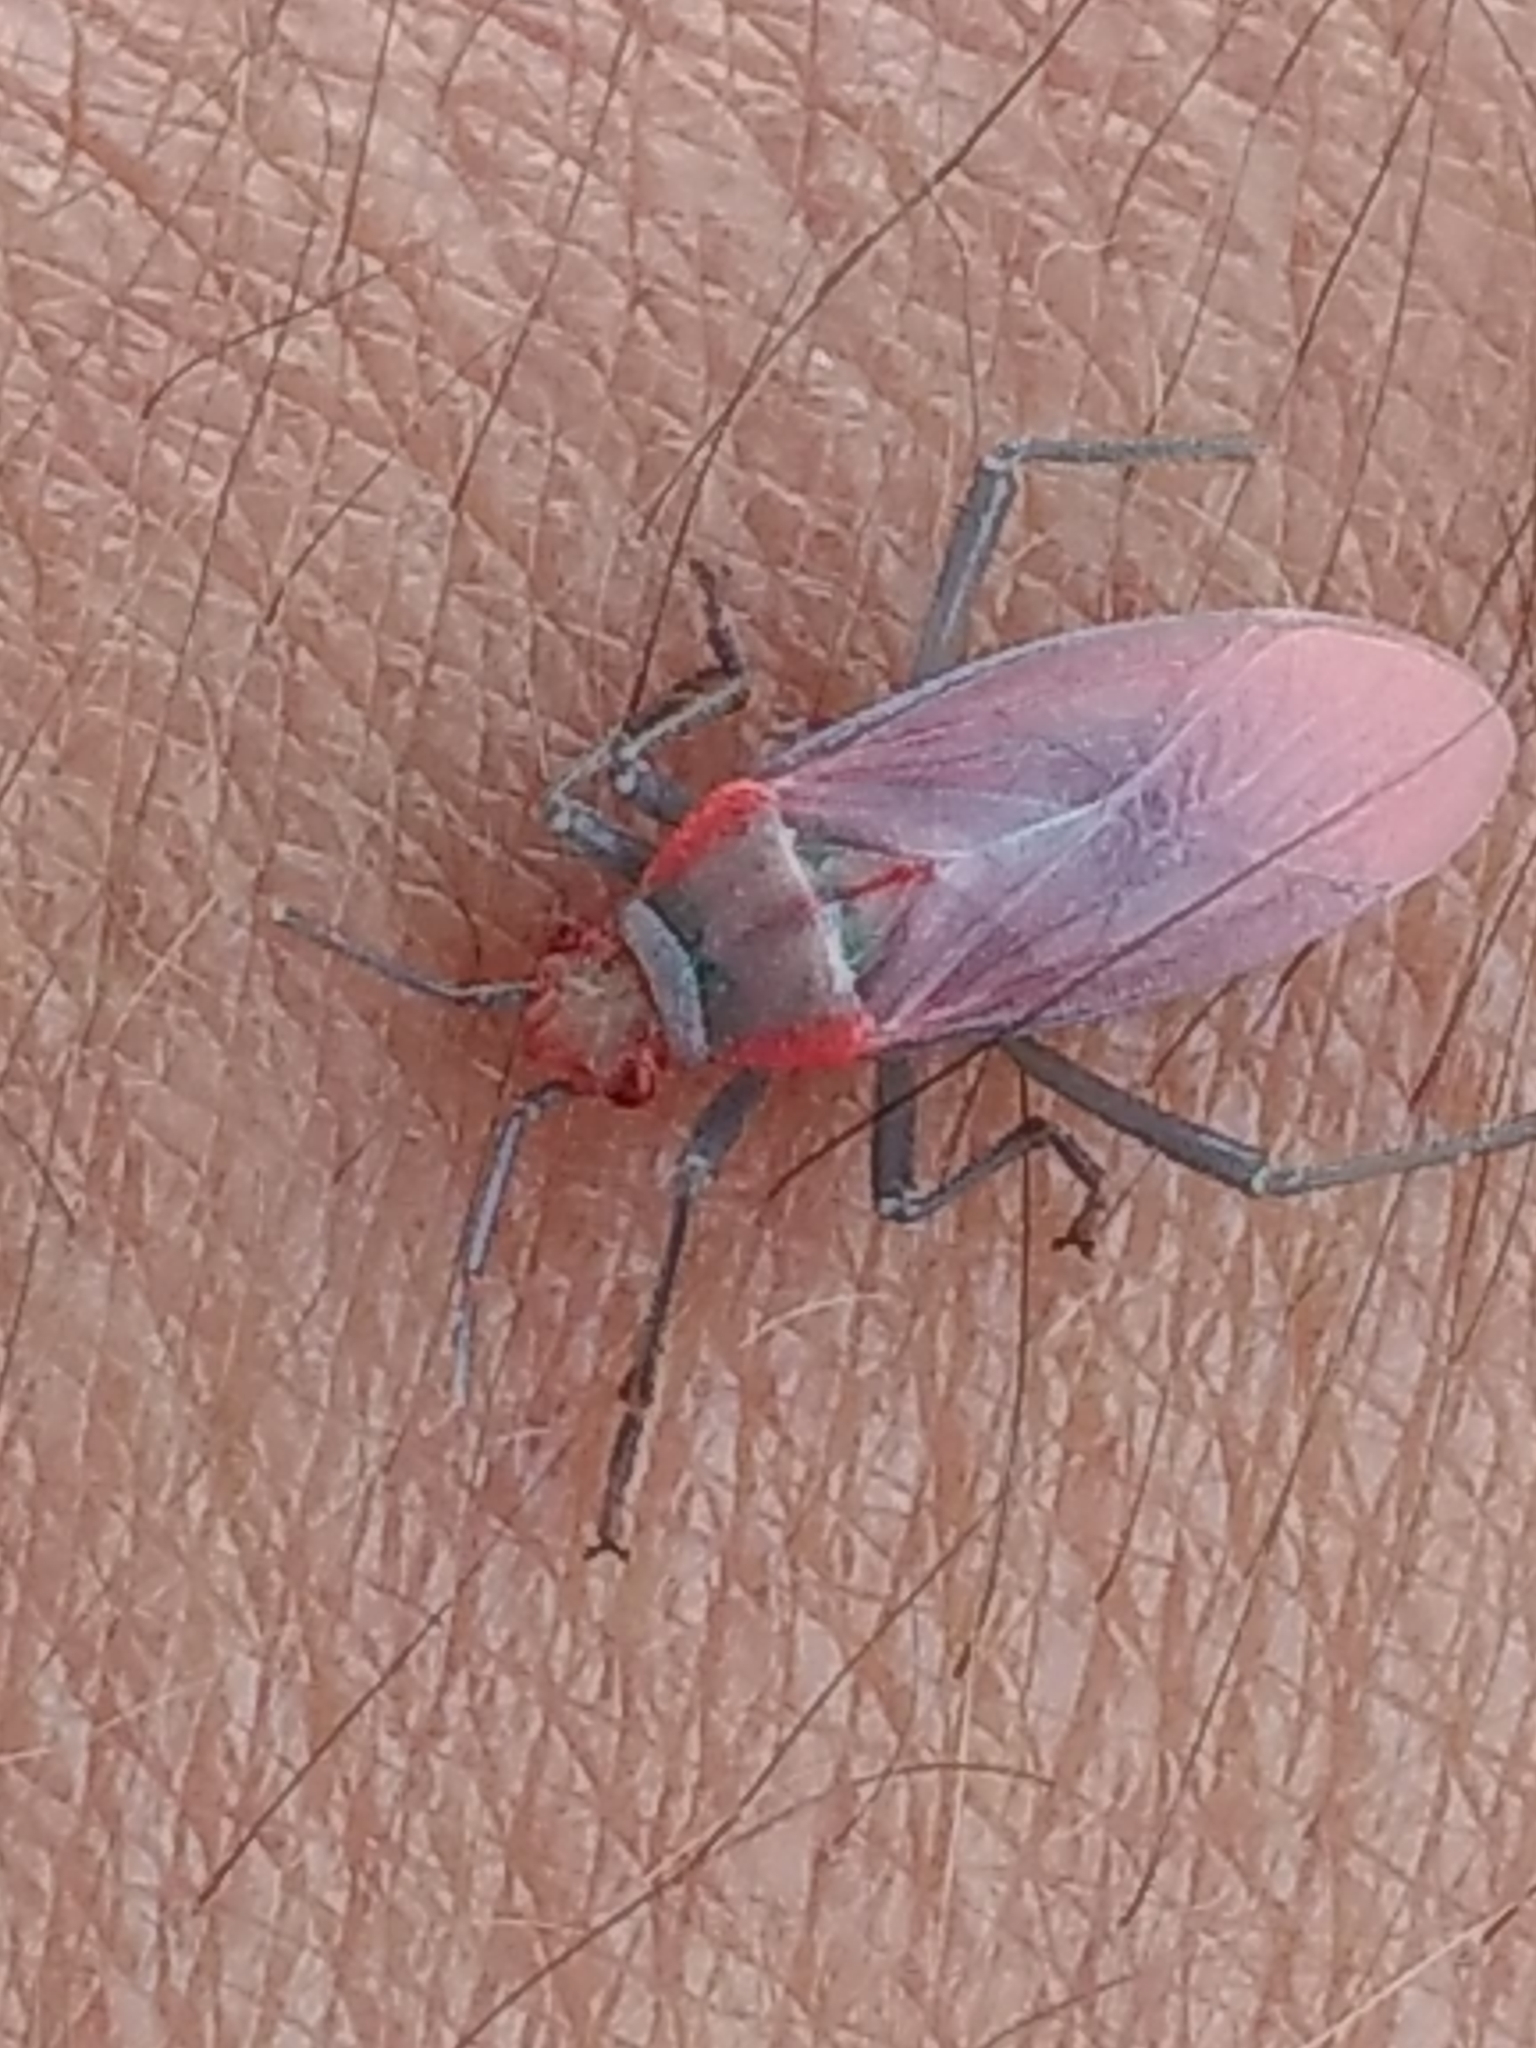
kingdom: Animalia
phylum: Arthropoda
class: Insecta
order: Hemiptera
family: Rhopalidae
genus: Jadera
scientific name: Jadera haematoloma
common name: Red-shouldered bug
